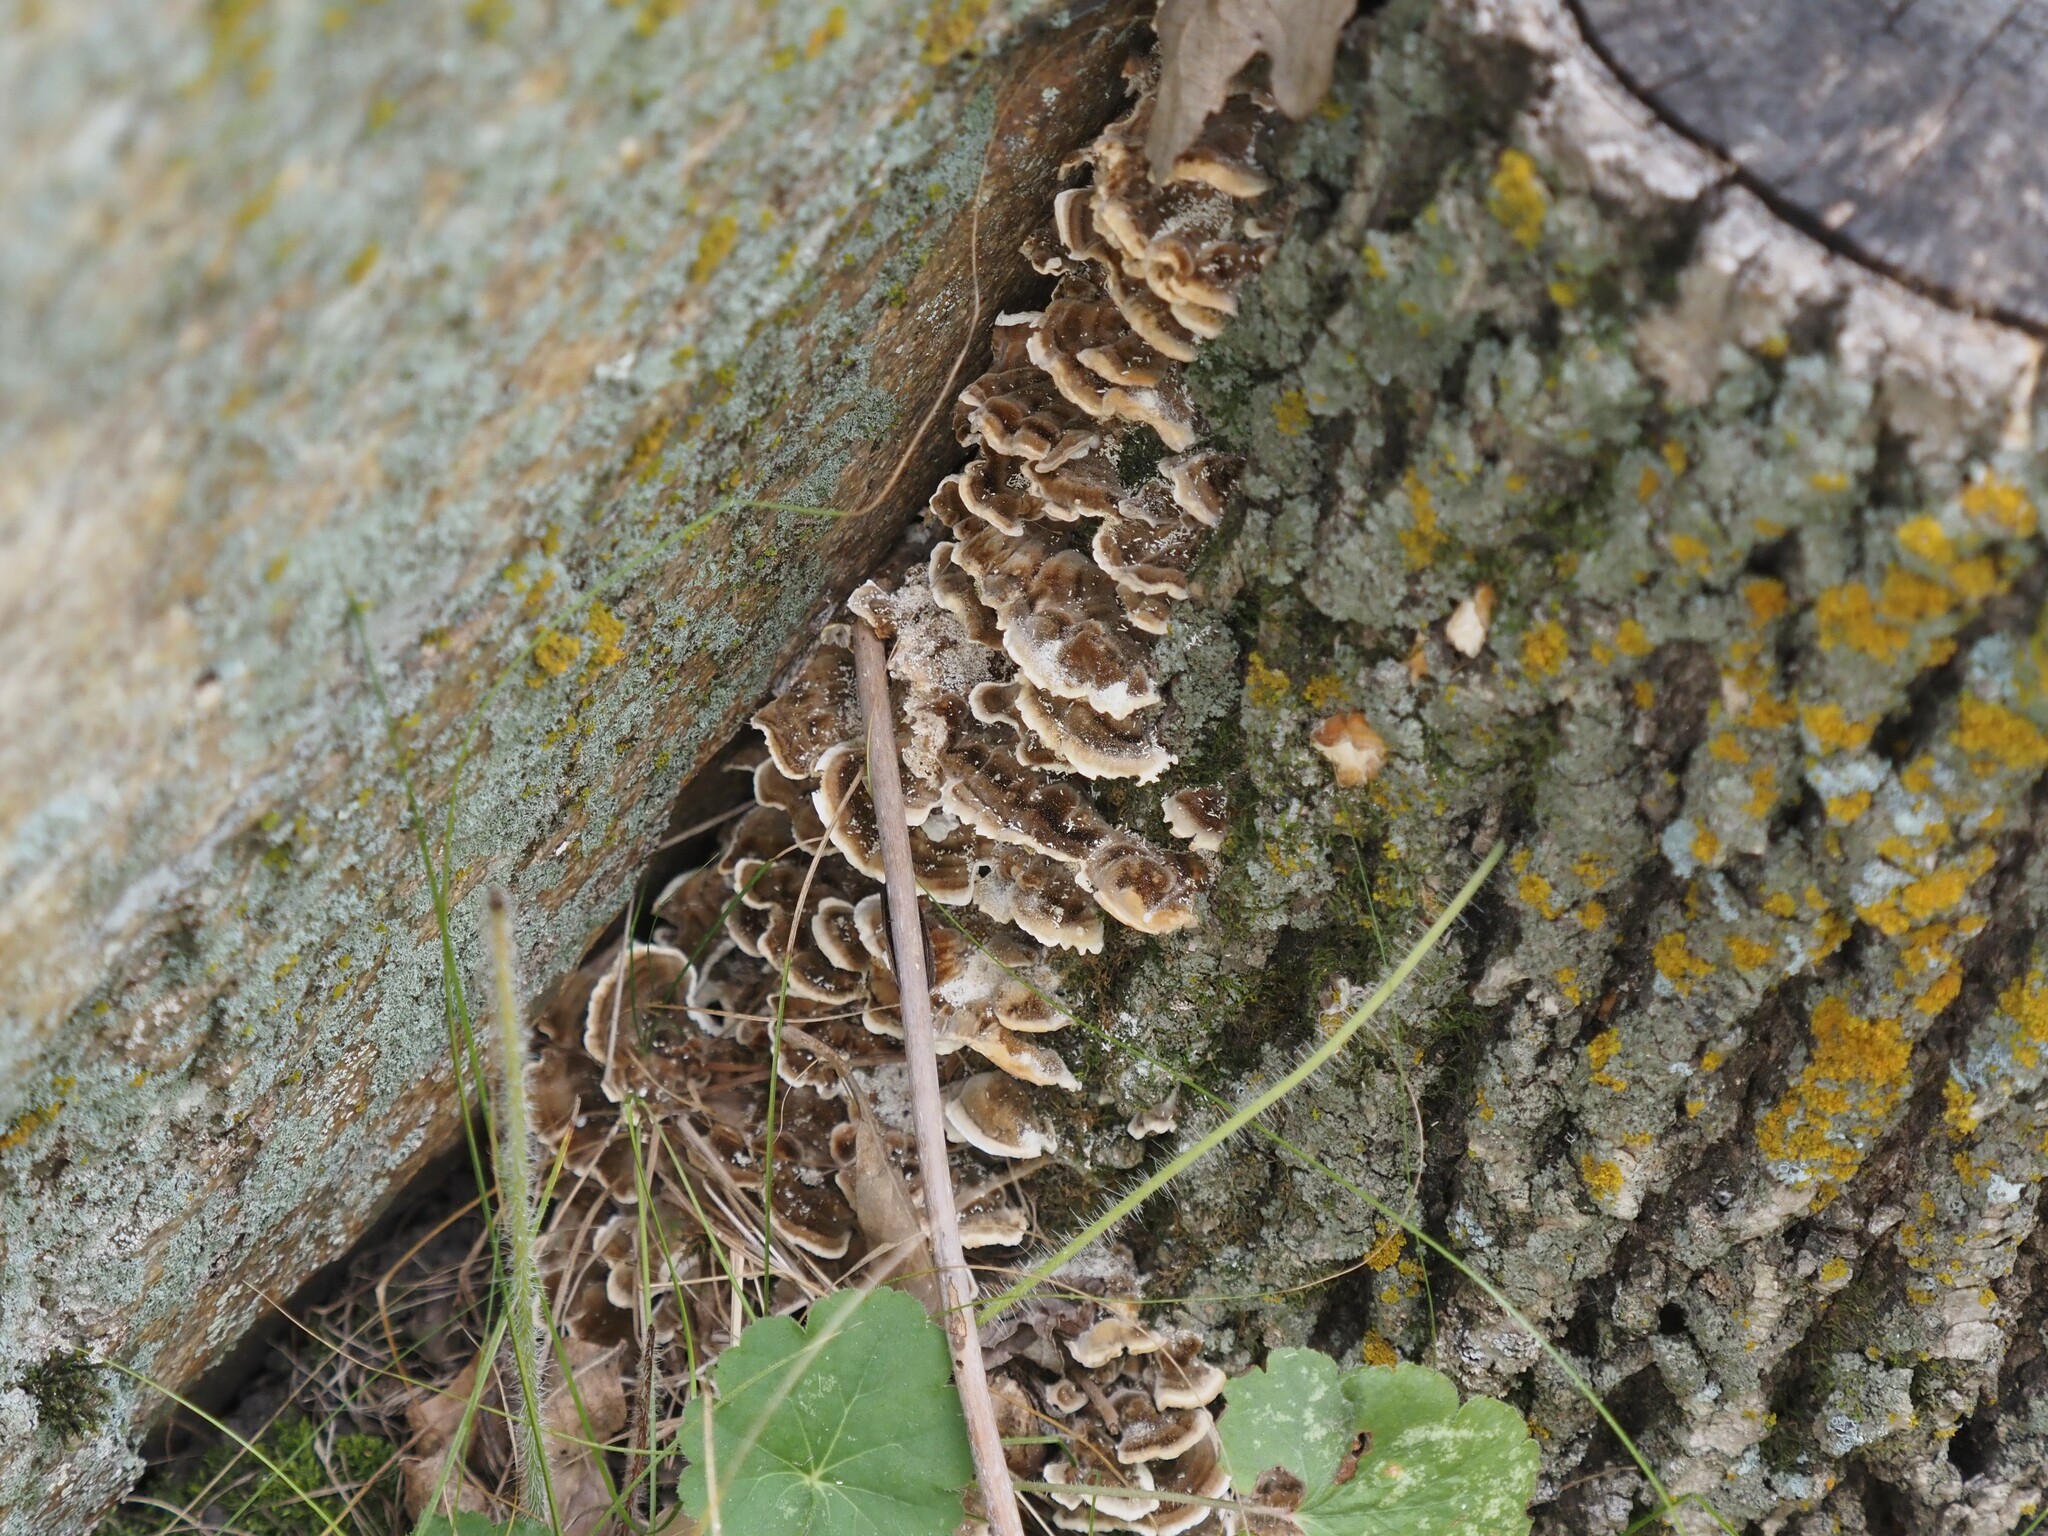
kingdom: Fungi
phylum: Basidiomycota
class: Agaricomycetes
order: Polyporales
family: Polyporaceae
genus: Trametes
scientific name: Trametes versicolor
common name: Turkeytail
